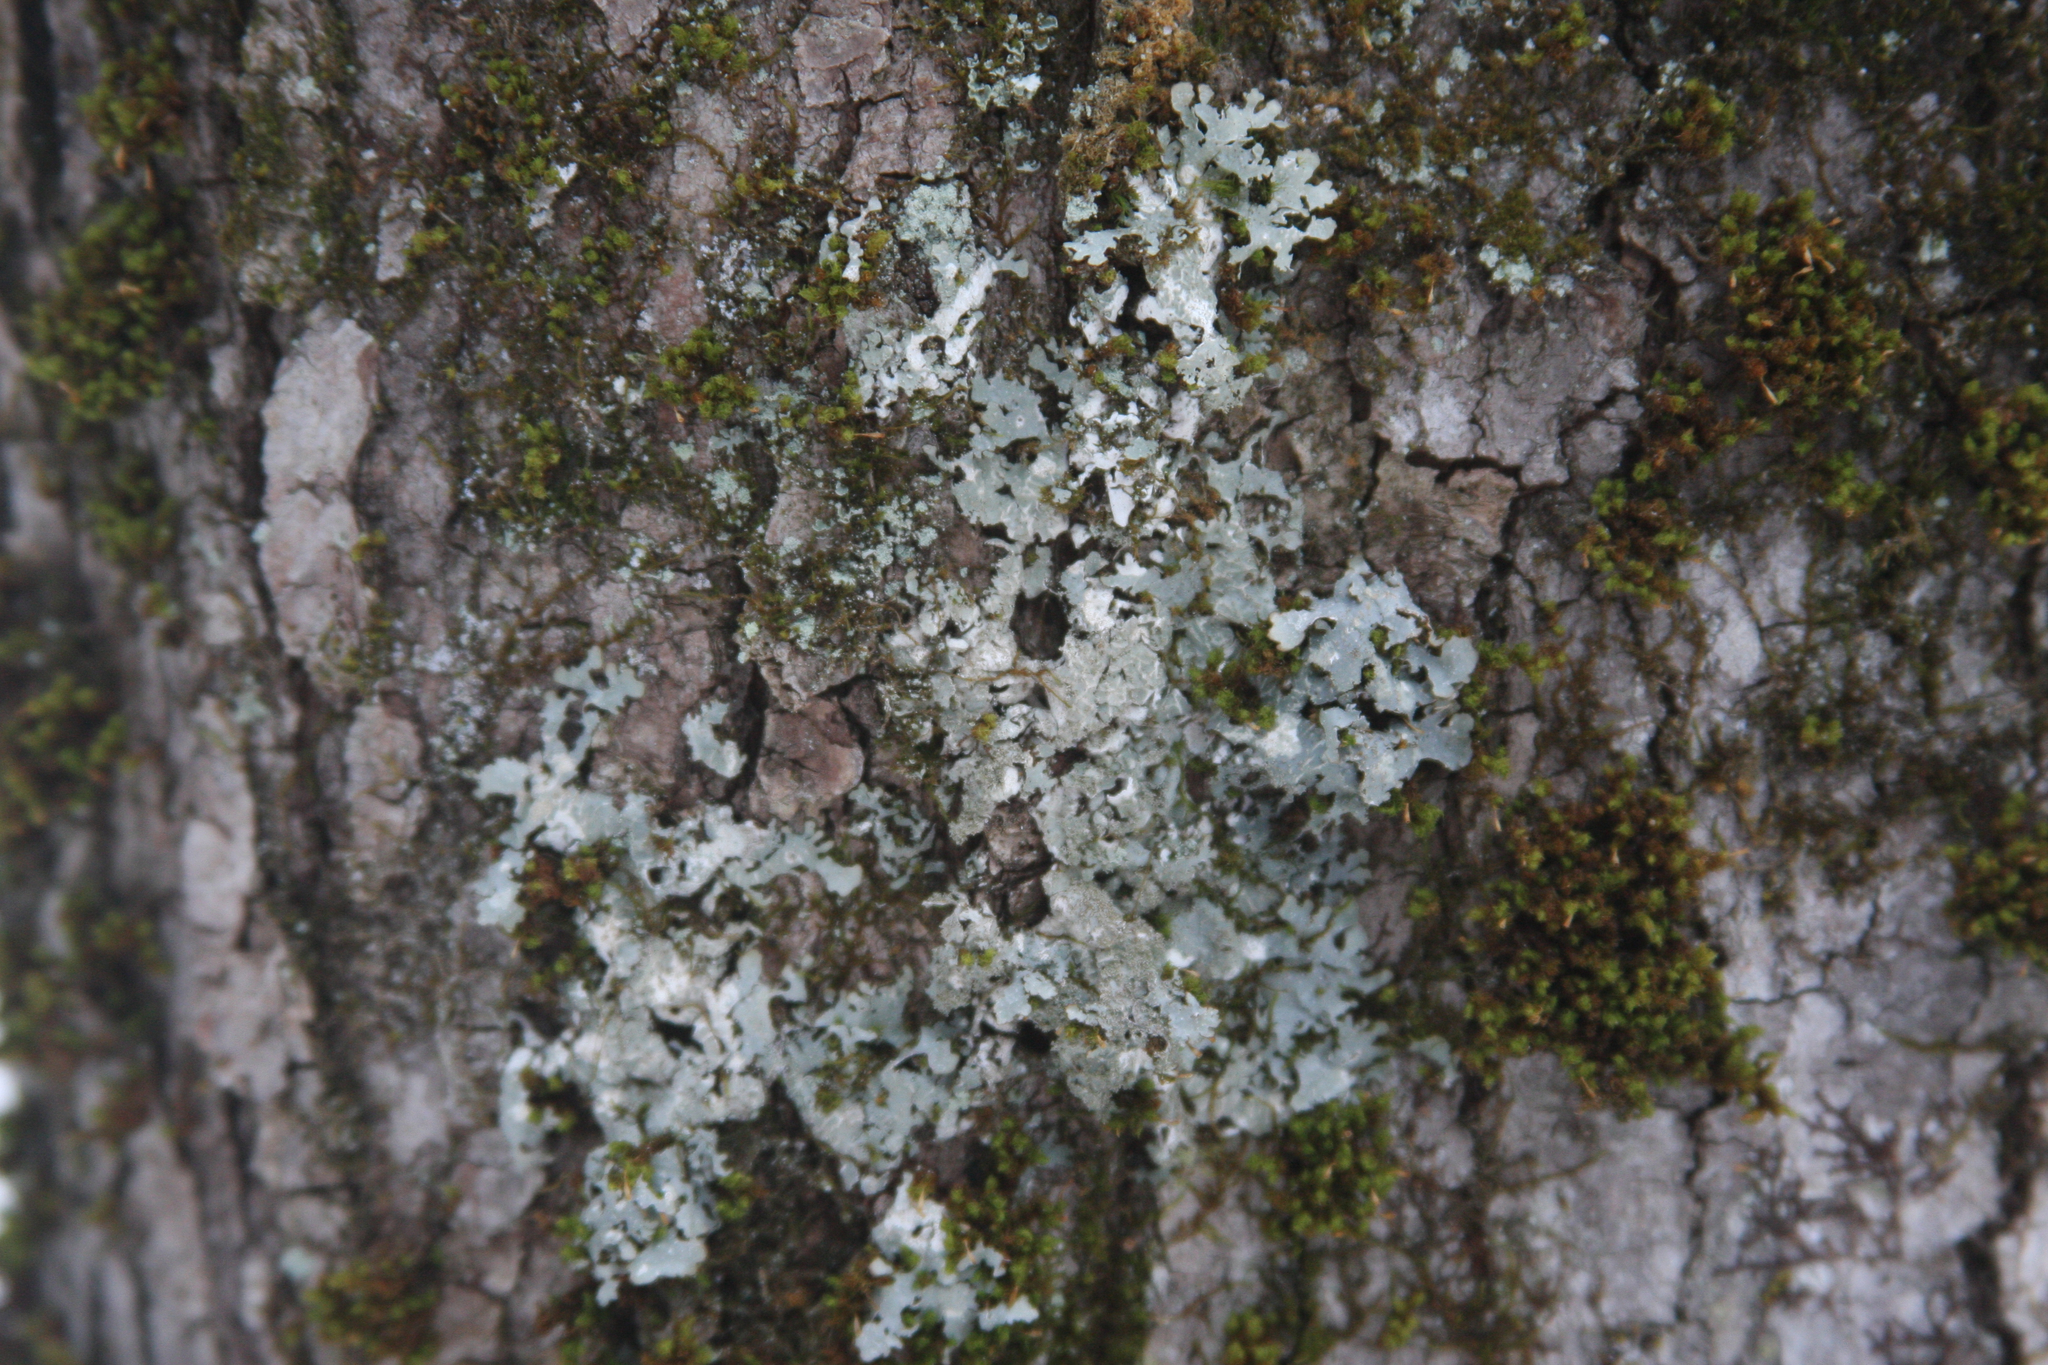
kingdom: Plantae
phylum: Bryophyta
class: Bryopsida
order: Orthotrichales
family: Orthotrichaceae
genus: Ulota
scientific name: Ulota crispa
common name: Crisped pincushion moss
